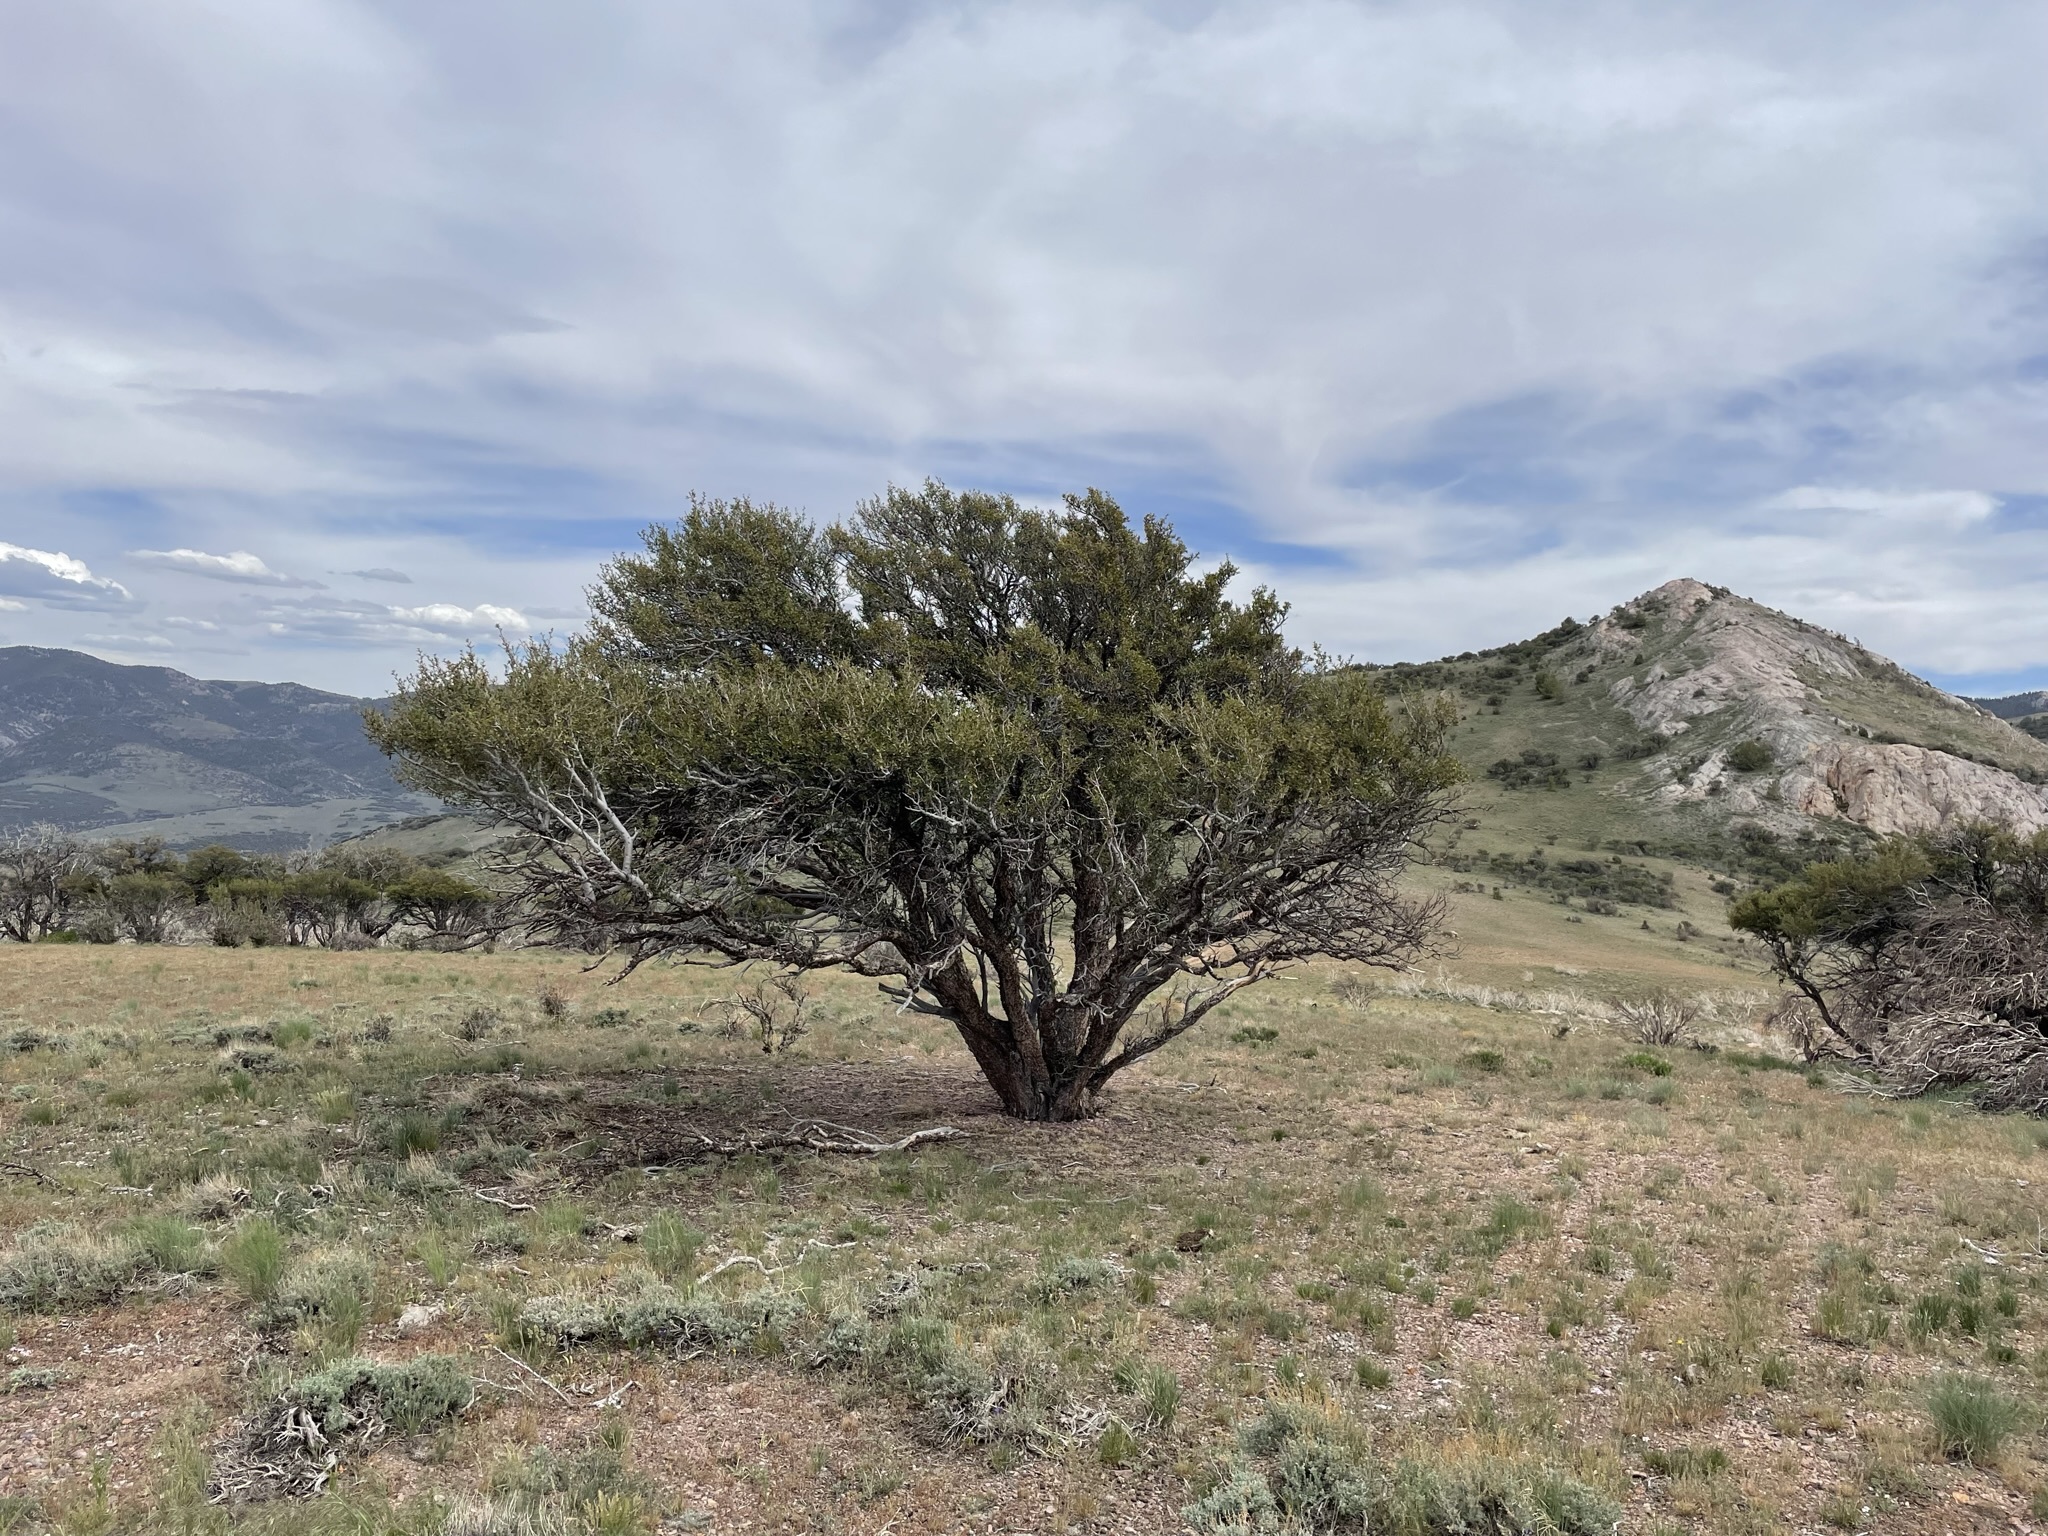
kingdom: Plantae
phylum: Tracheophyta
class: Magnoliopsida
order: Rosales
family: Rosaceae
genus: Cercocarpus
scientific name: Cercocarpus ledifolius
